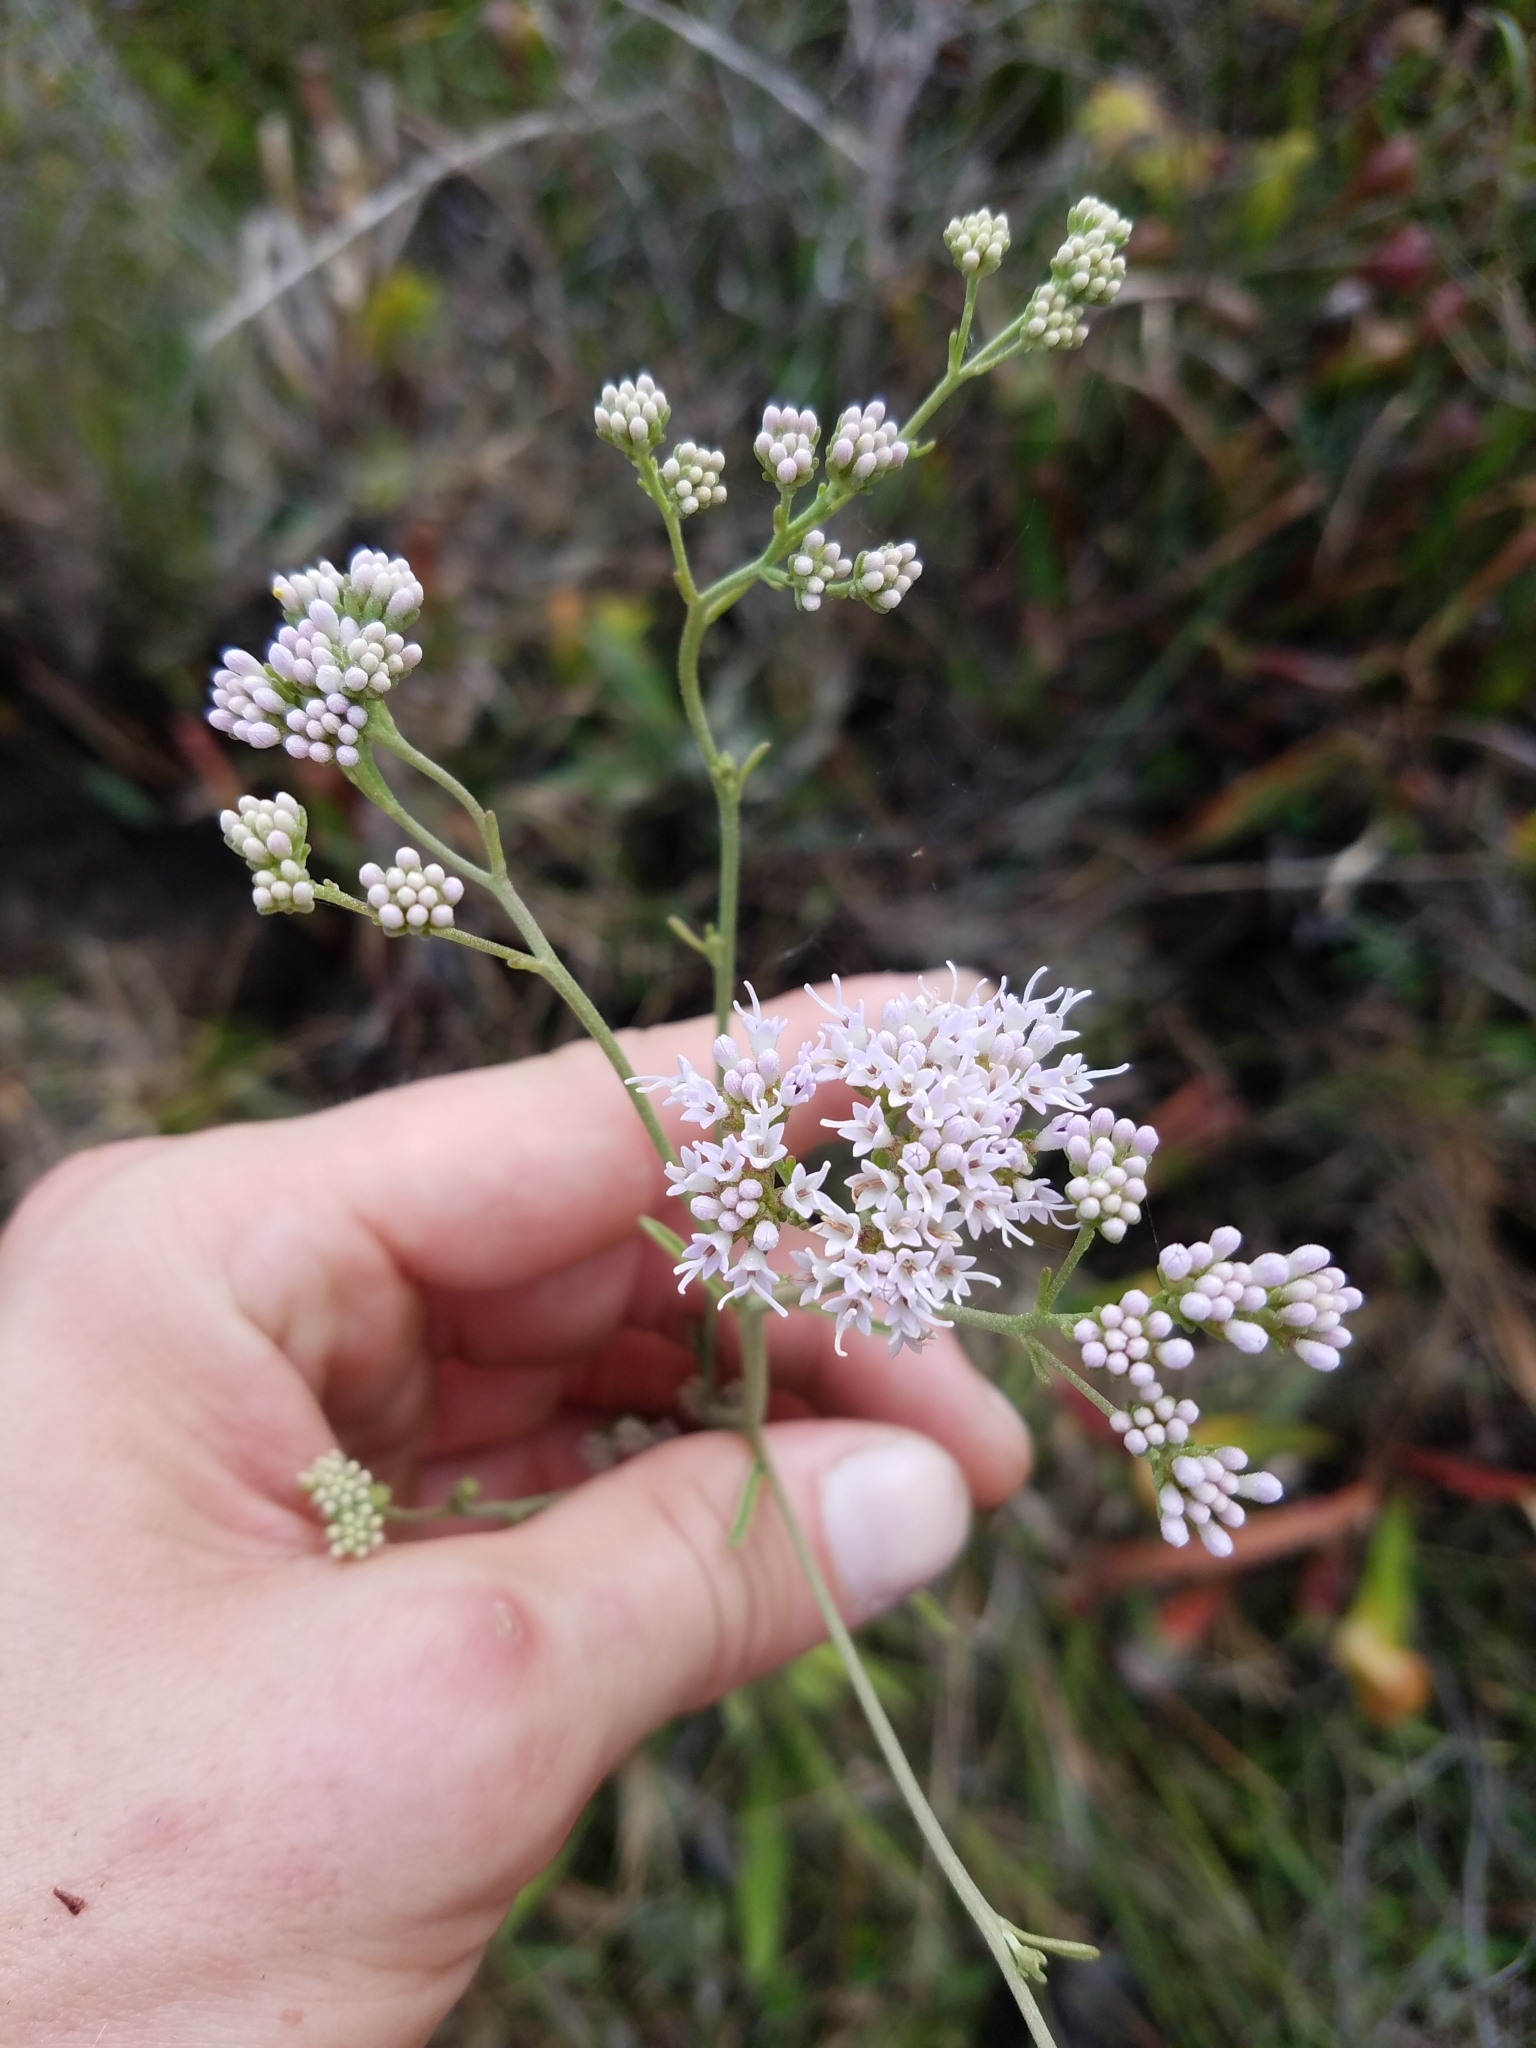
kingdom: Plantae
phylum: Tracheophyta
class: Magnoliopsida
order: Asterales
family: Asteraceae
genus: Hartwrightia
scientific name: Hartwrightia floridana
